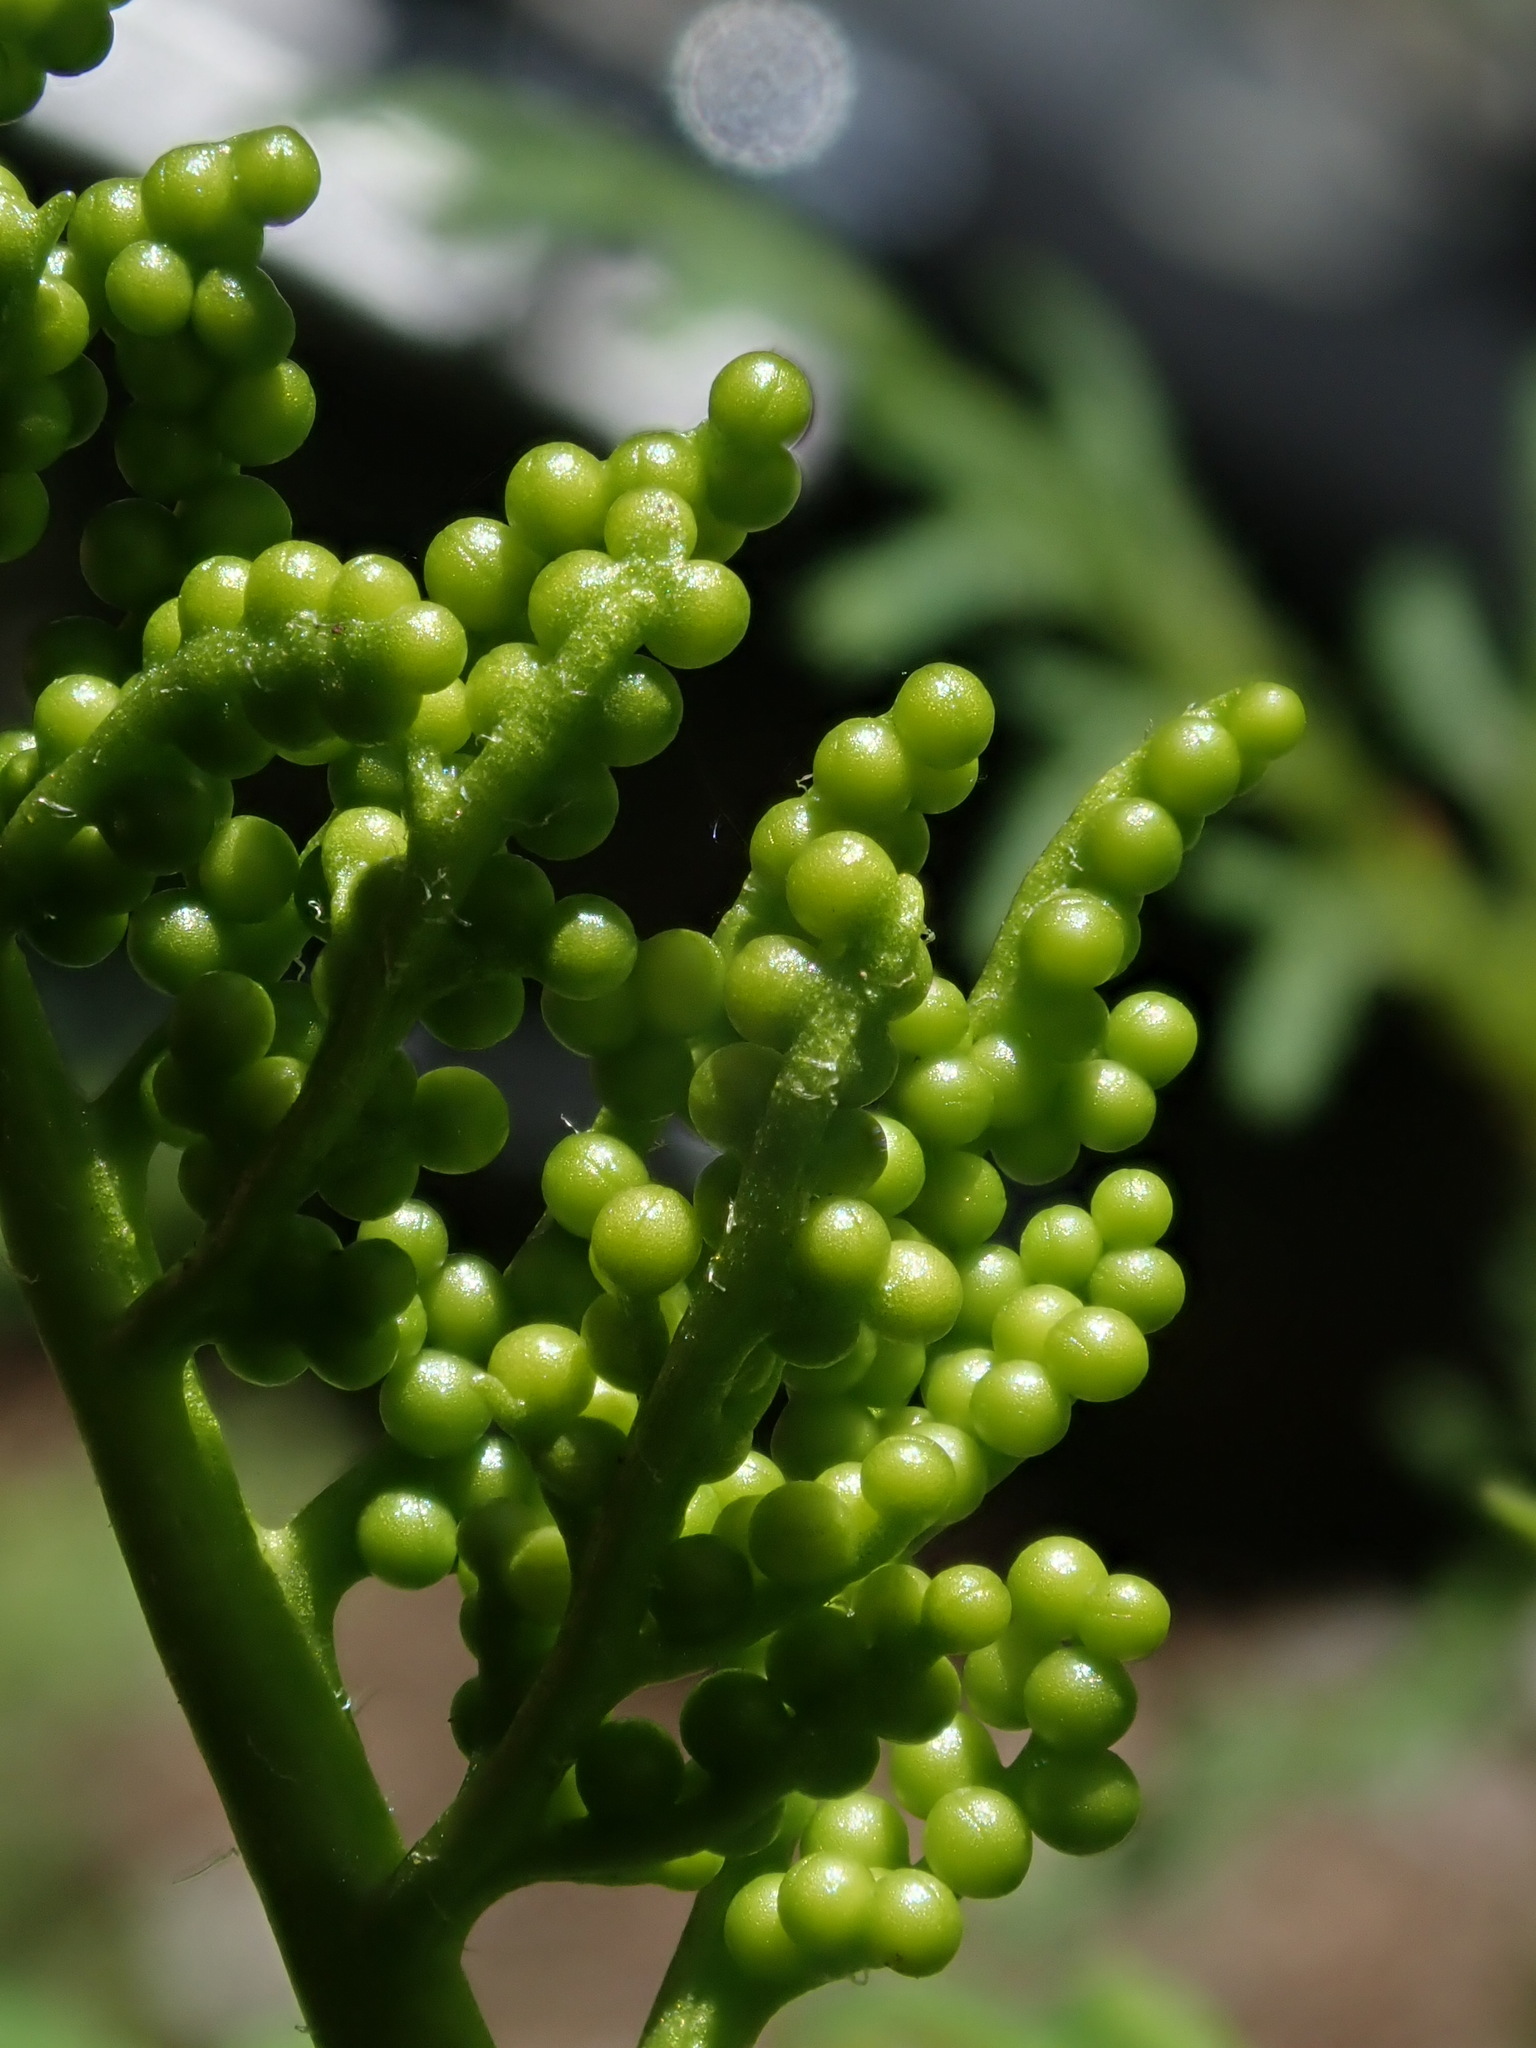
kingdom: Plantae
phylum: Tracheophyta
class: Polypodiopsida
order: Ophioglossales
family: Ophioglossaceae
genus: Sceptridium
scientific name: Sceptridium multifidum
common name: Leathery grape fern
